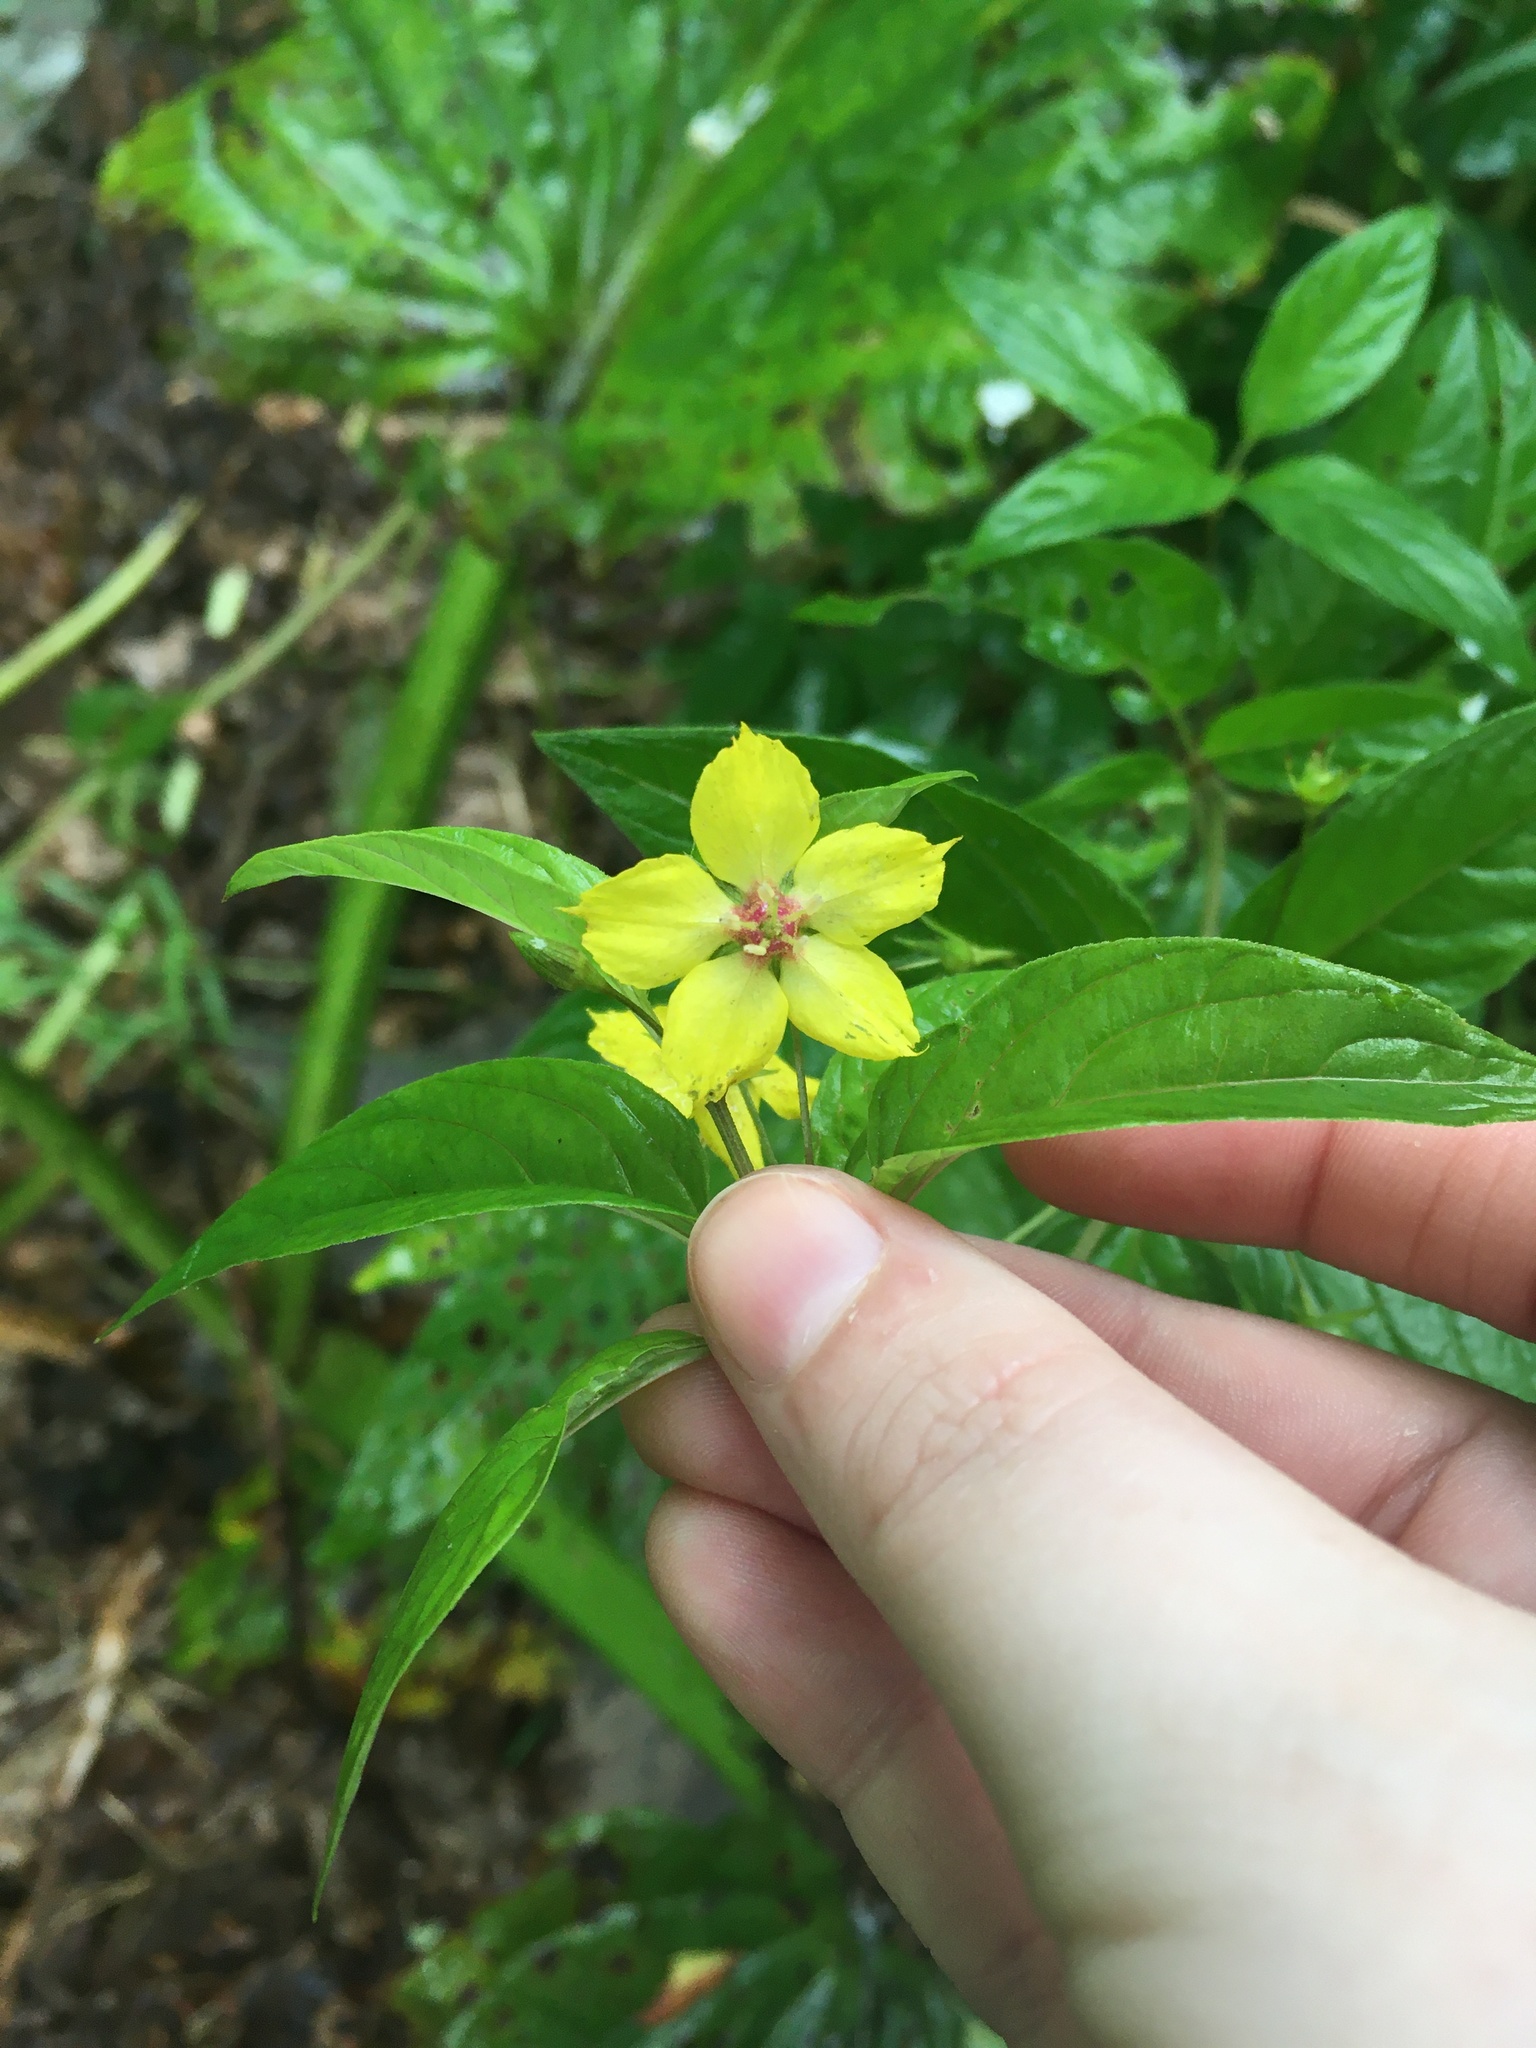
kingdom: Plantae
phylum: Tracheophyta
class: Magnoliopsida
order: Ericales
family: Primulaceae
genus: Lysimachia
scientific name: Lysimachia ciliata
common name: Fringed loosestrife
